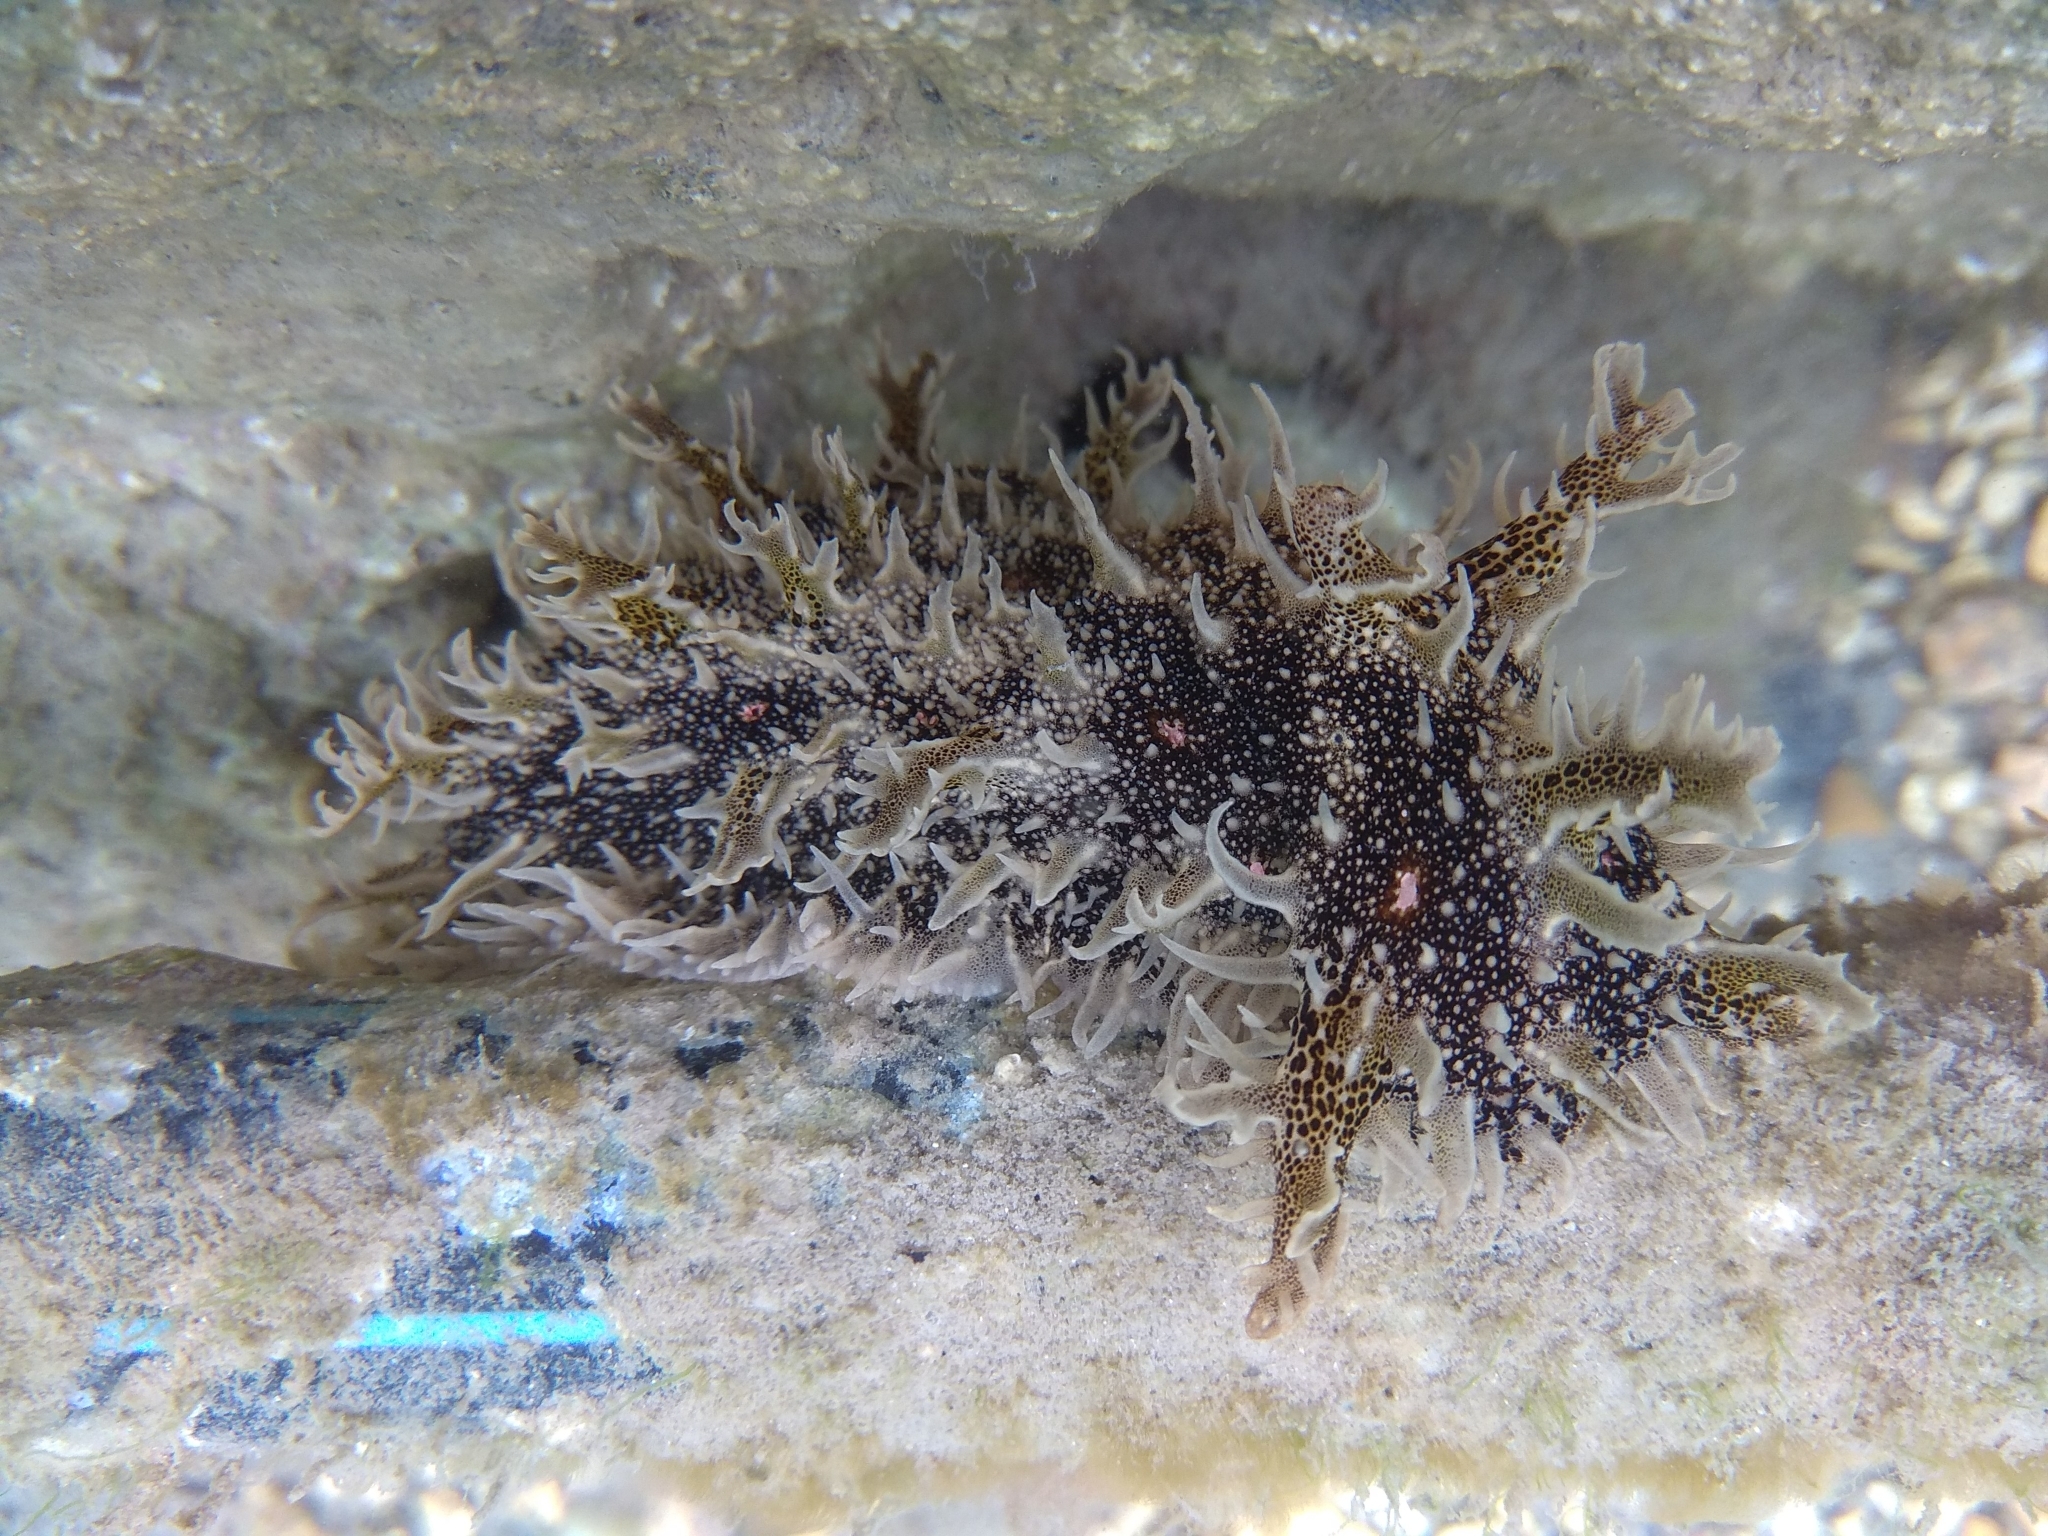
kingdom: Animalia
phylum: Mollusca
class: Gastropoda
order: Aplysiida
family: Aplysiidae
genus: Bursatella
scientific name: Bursatella leachii
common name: Shaggy sea hare
